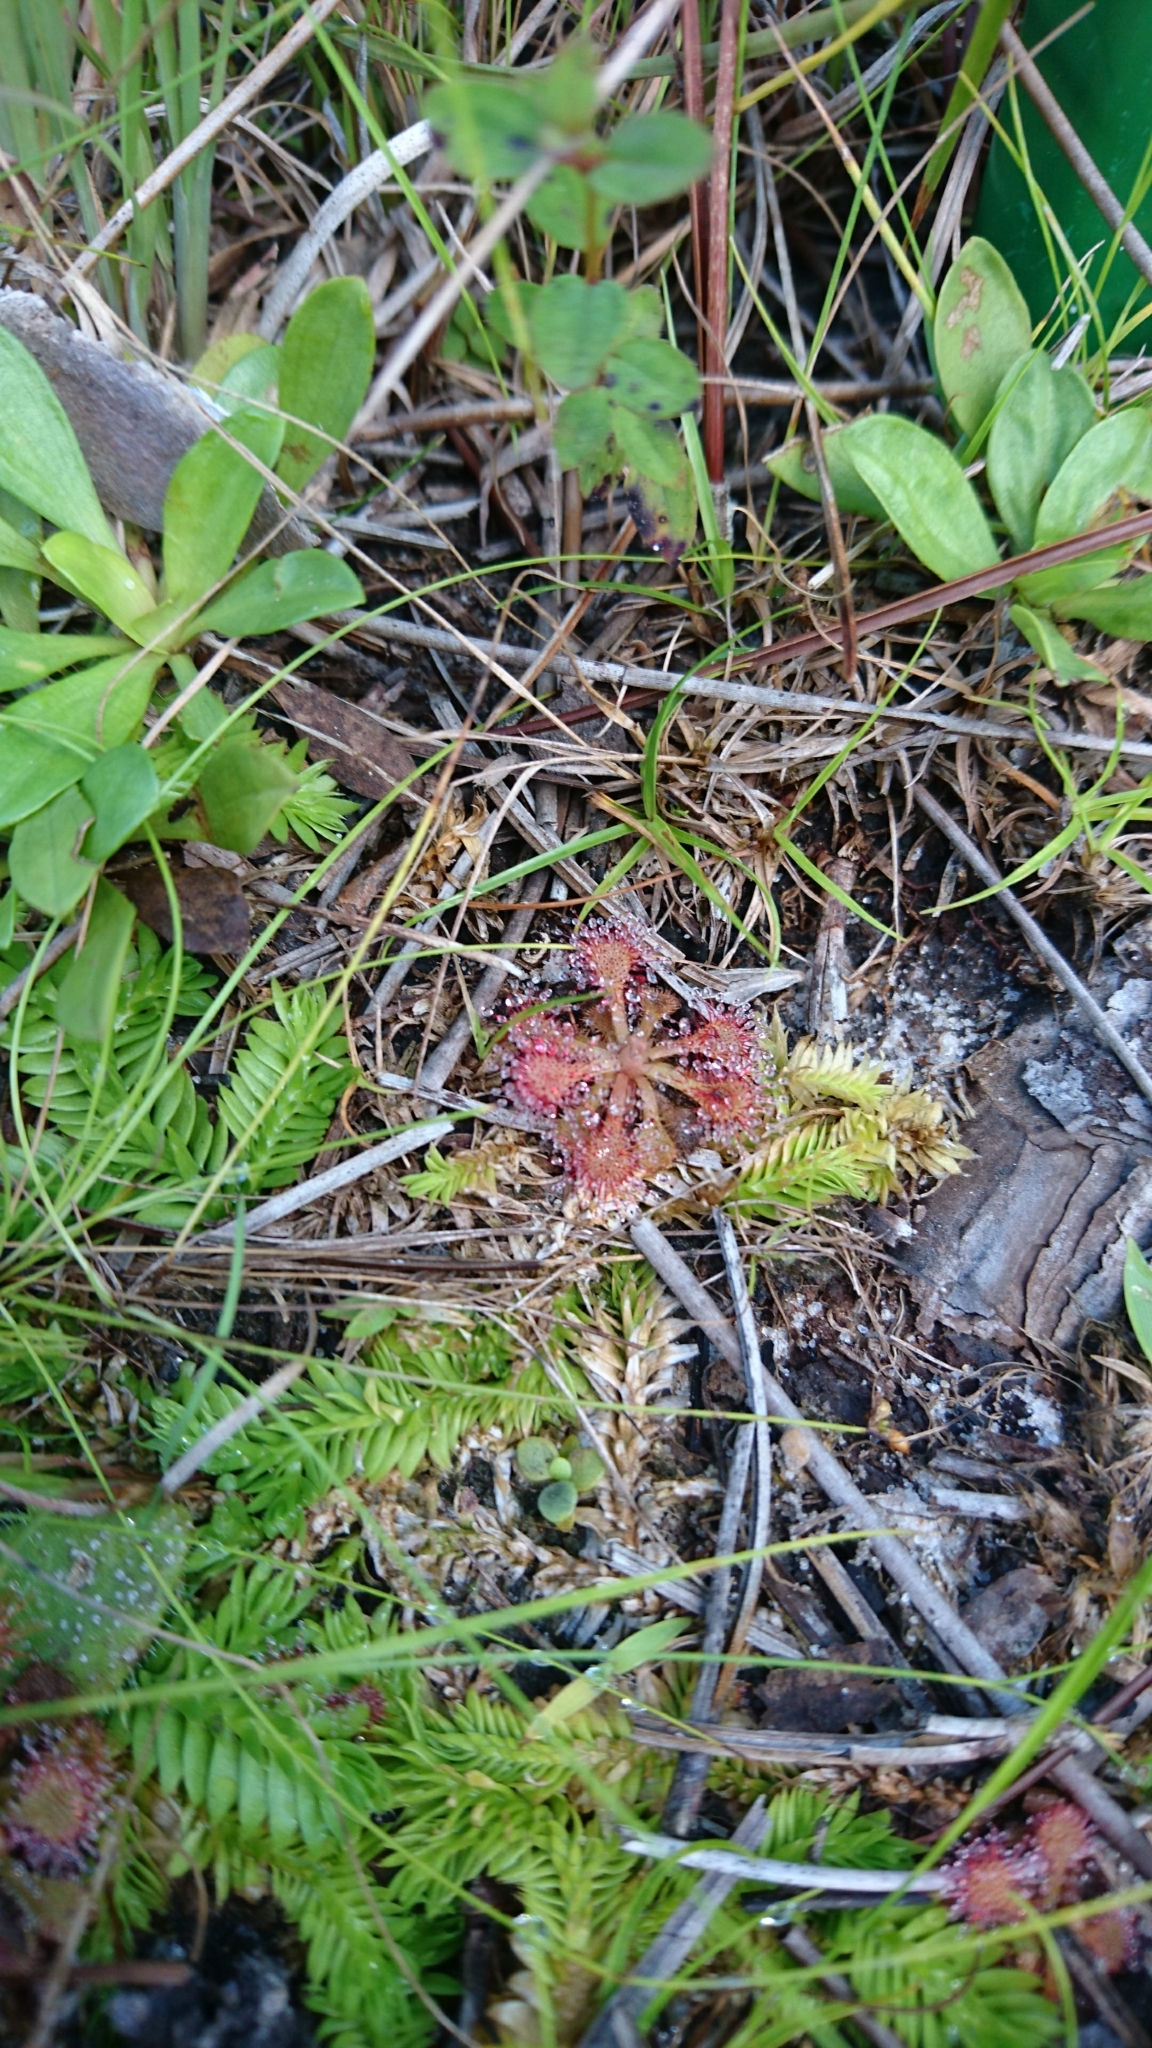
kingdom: Plantae
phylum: Tracheophyta
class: Magnoliopsida
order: Caryophyllales
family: Droseraceae
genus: Drosera
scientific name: Drosera capillaris
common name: Pink sundew
